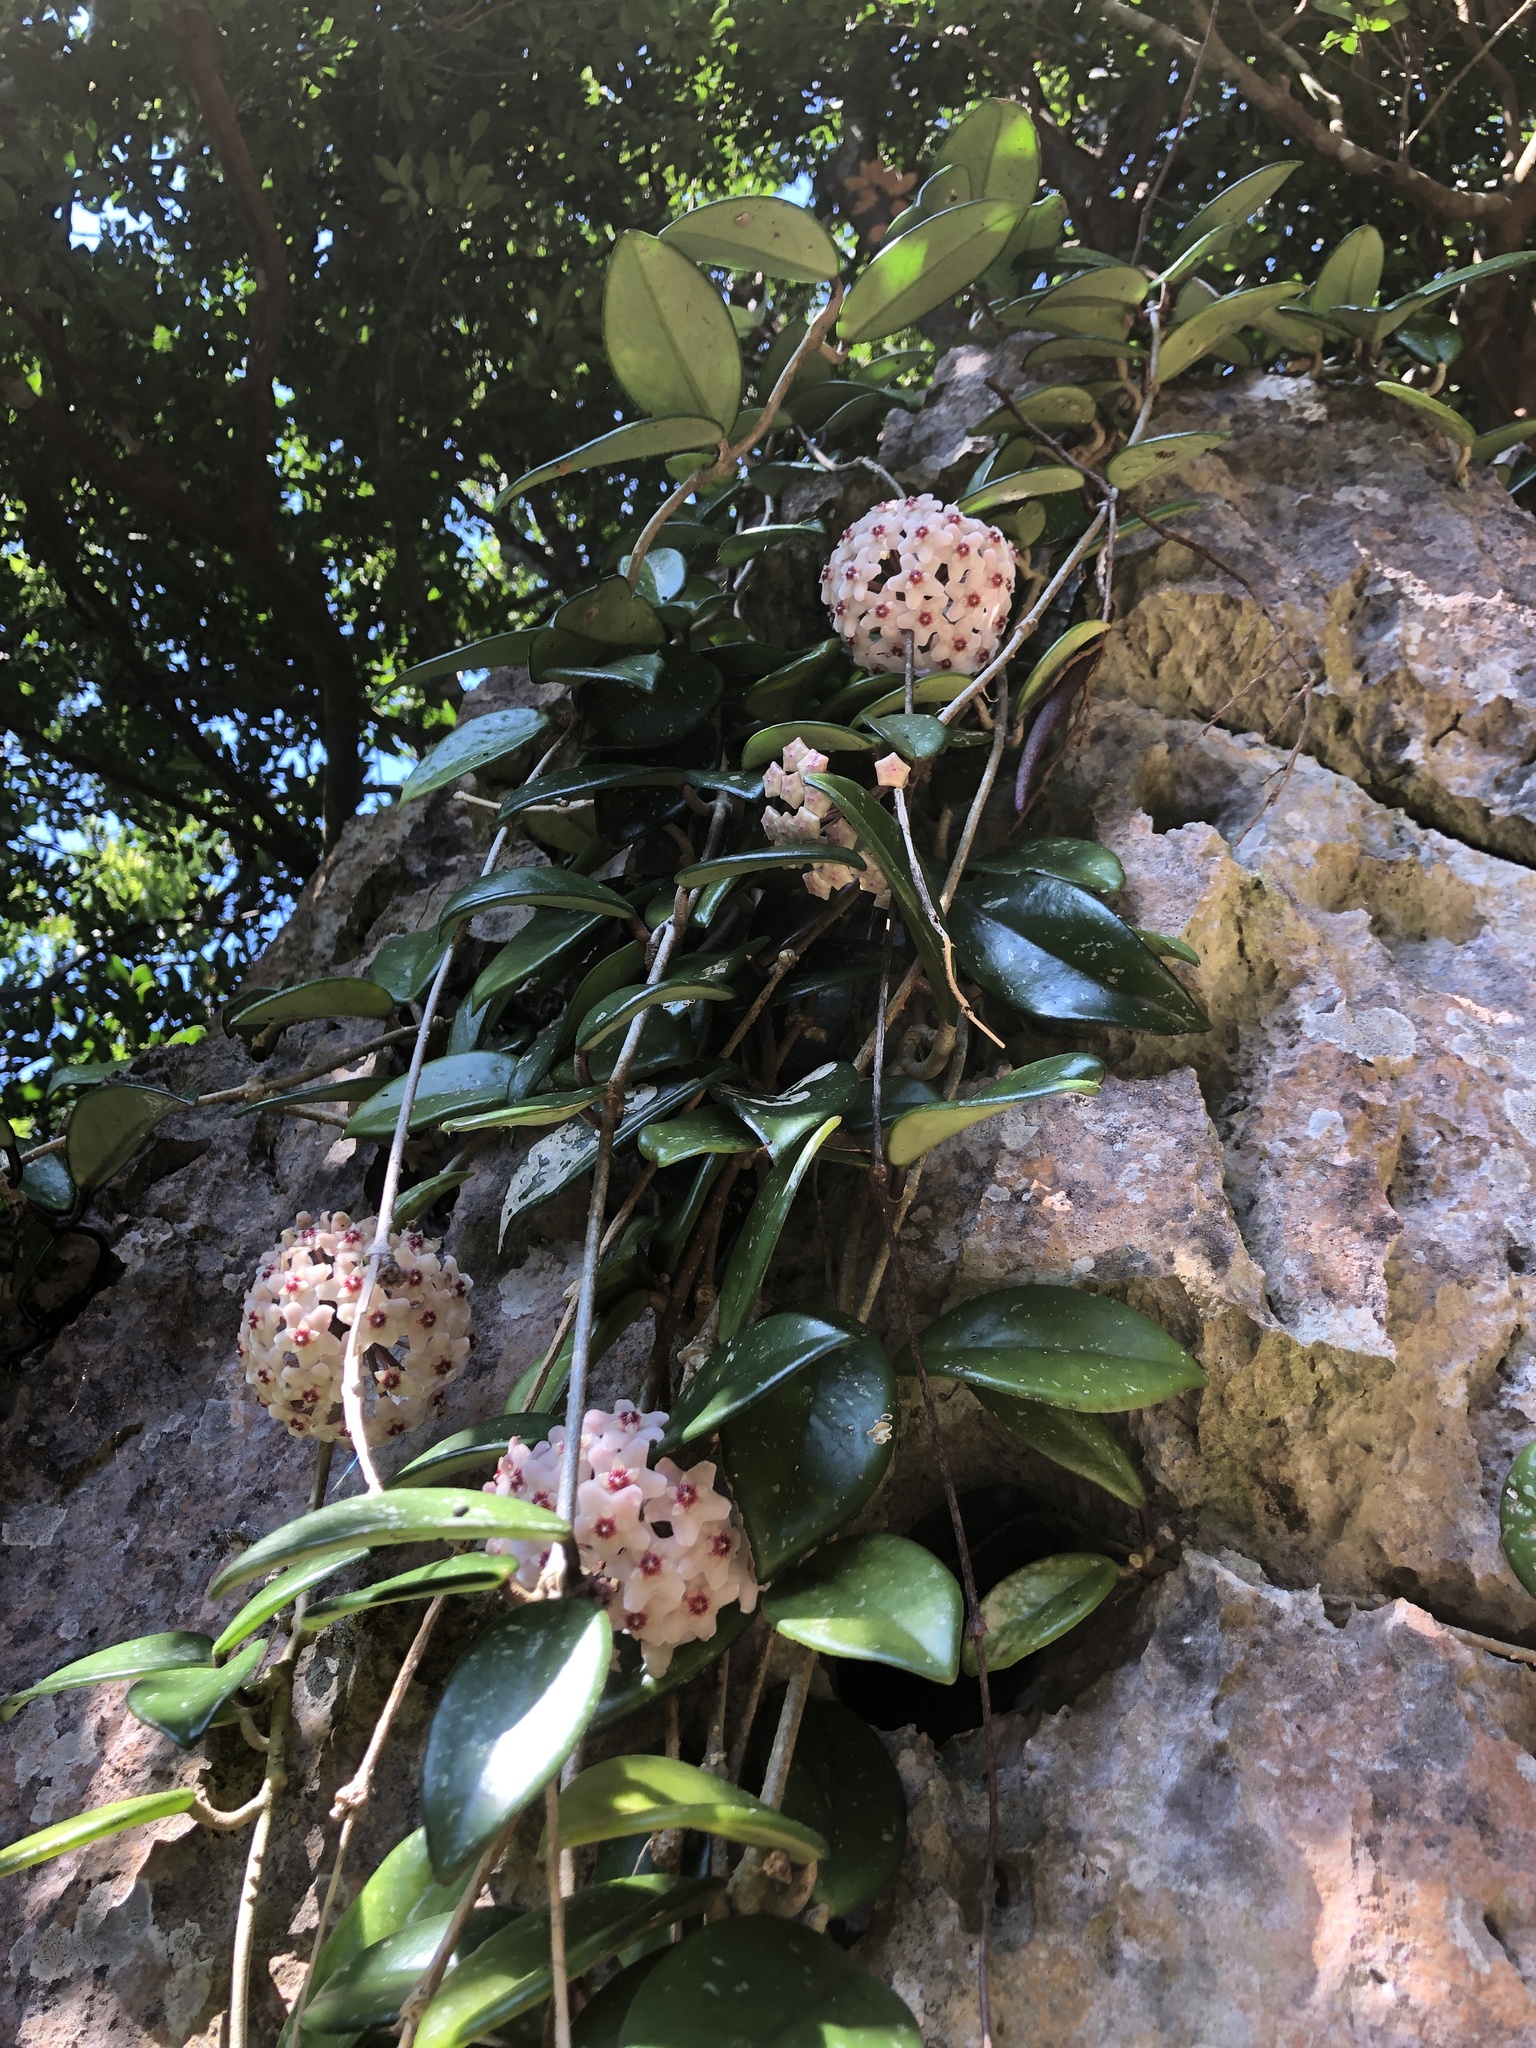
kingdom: Plantae
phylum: Tracheophyta
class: Magnoliopsida
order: Gentianales
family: Apocynaceae
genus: Hoya
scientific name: Hoya carnosa
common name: Honeyplant
